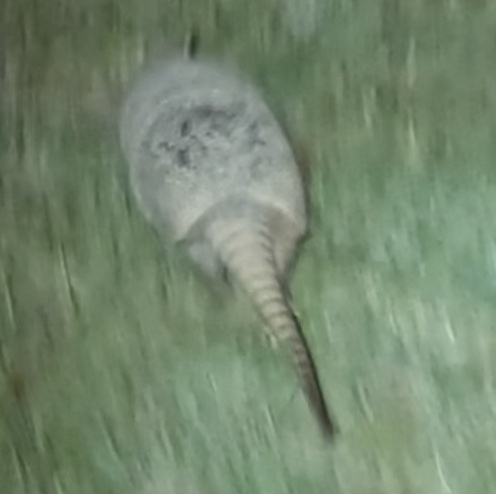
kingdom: Animalia
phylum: Chordata
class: Mammalia
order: Cingulata
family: Dasypodidae
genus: Dasypus
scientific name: Dasypus novemcinctus
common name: Nine-banded armadillo
